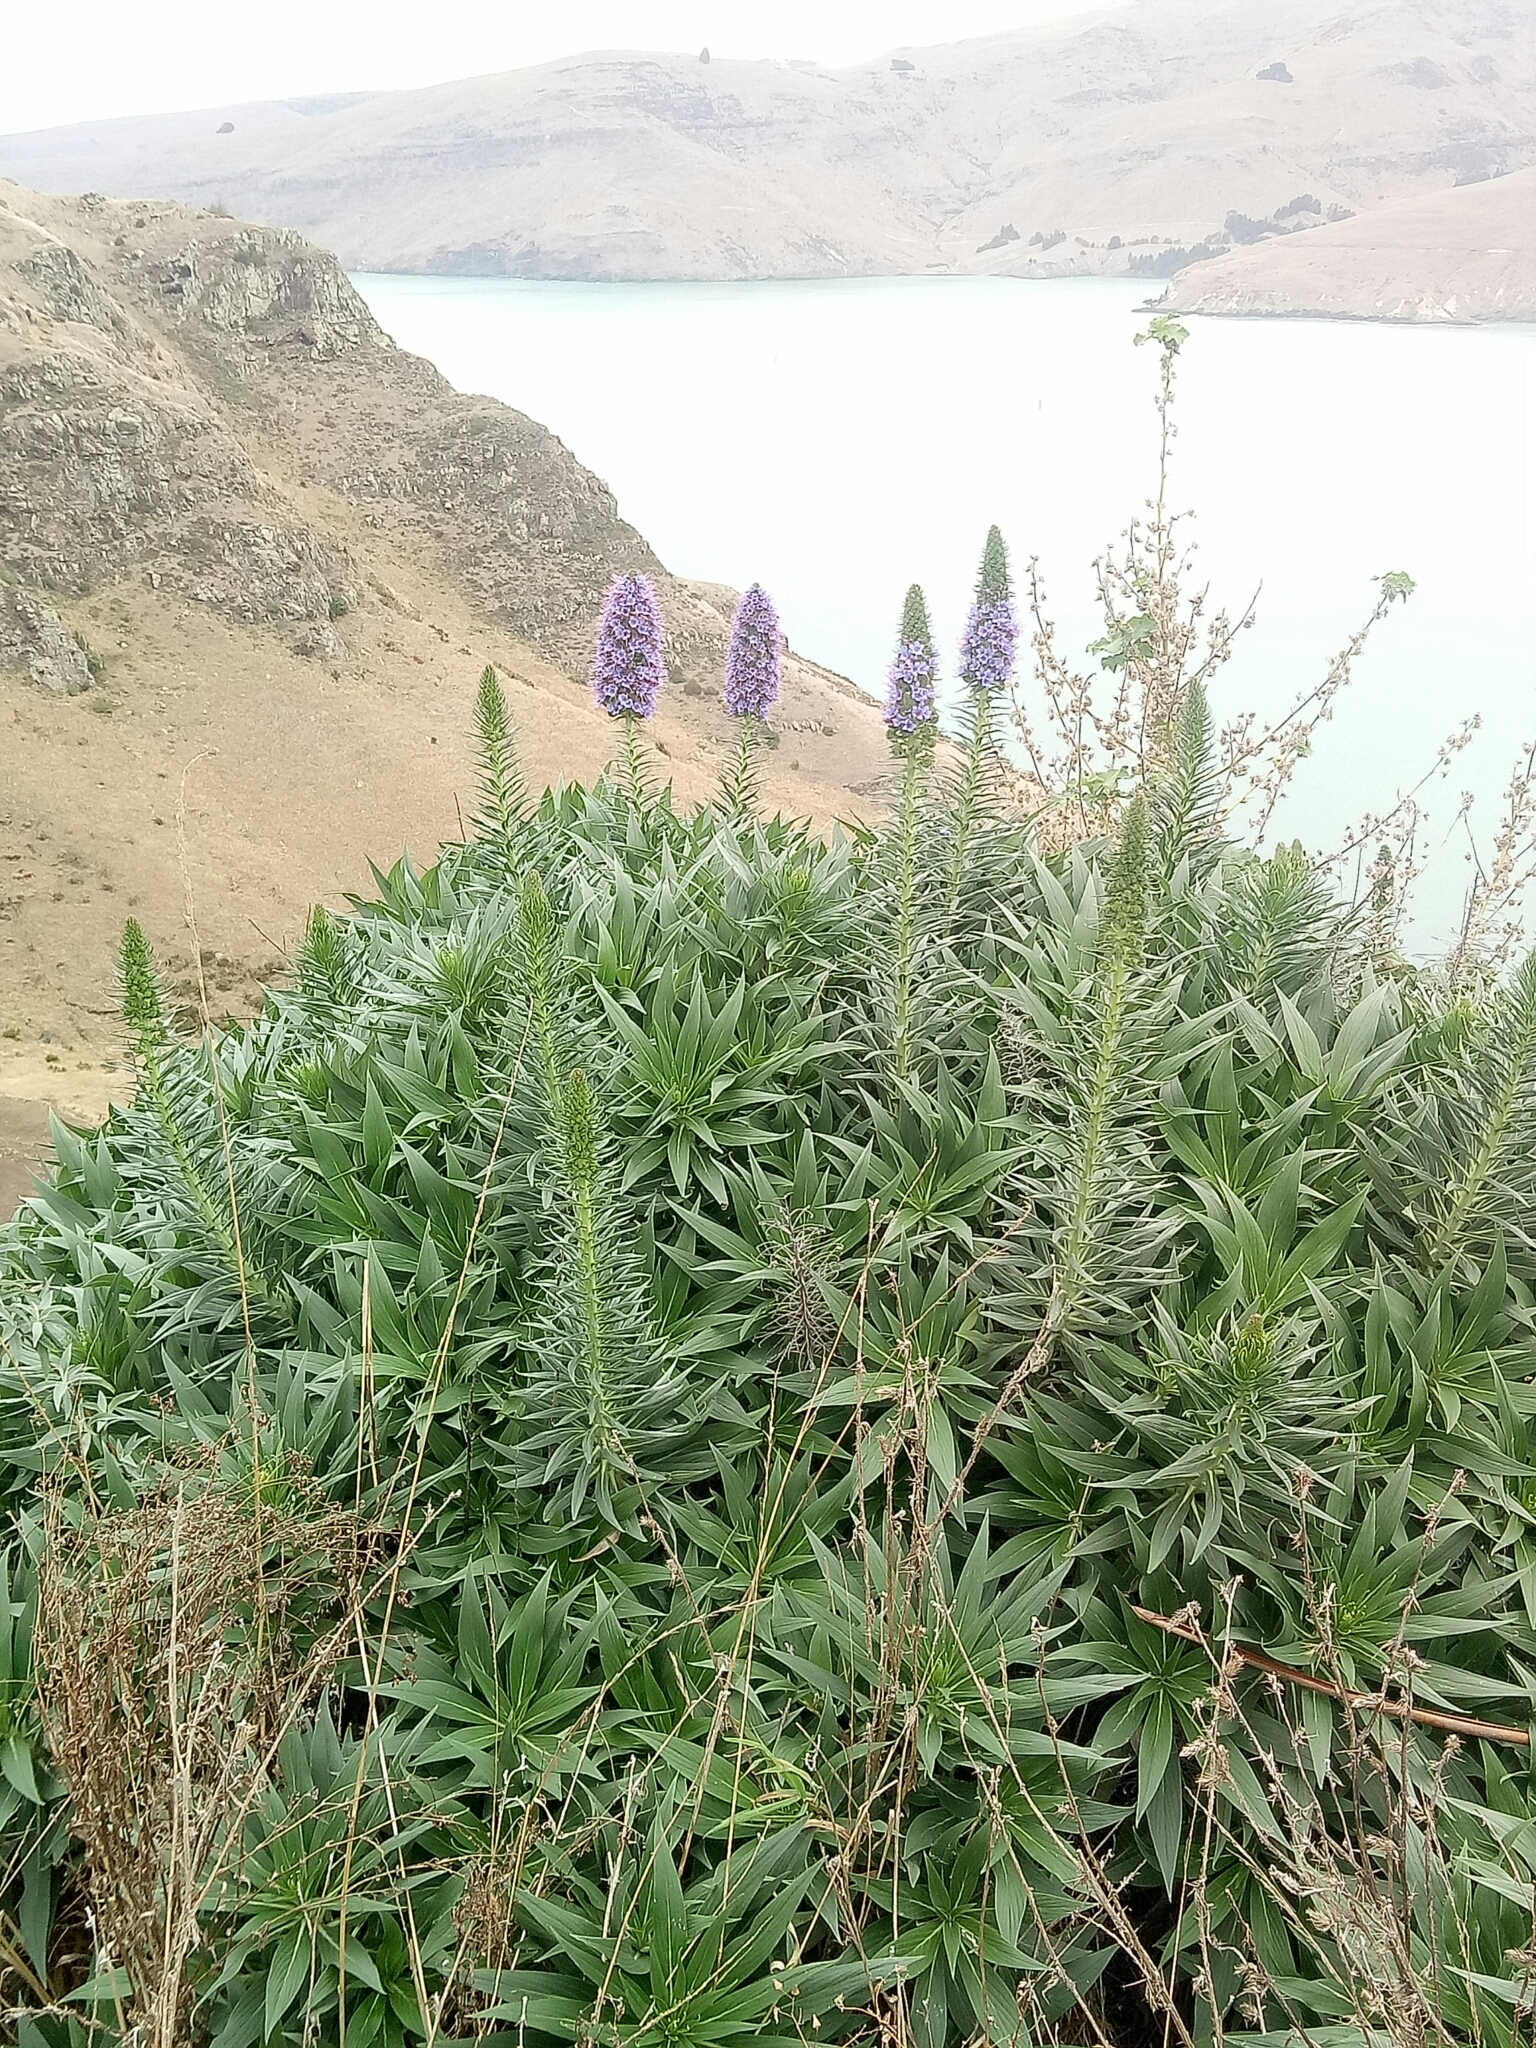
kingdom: Plantae
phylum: Tracheophyta
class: Magnoliopsida
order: Boraginales
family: Boraginaceae
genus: Echium
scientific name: Echium candicans
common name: Pride of madeira
